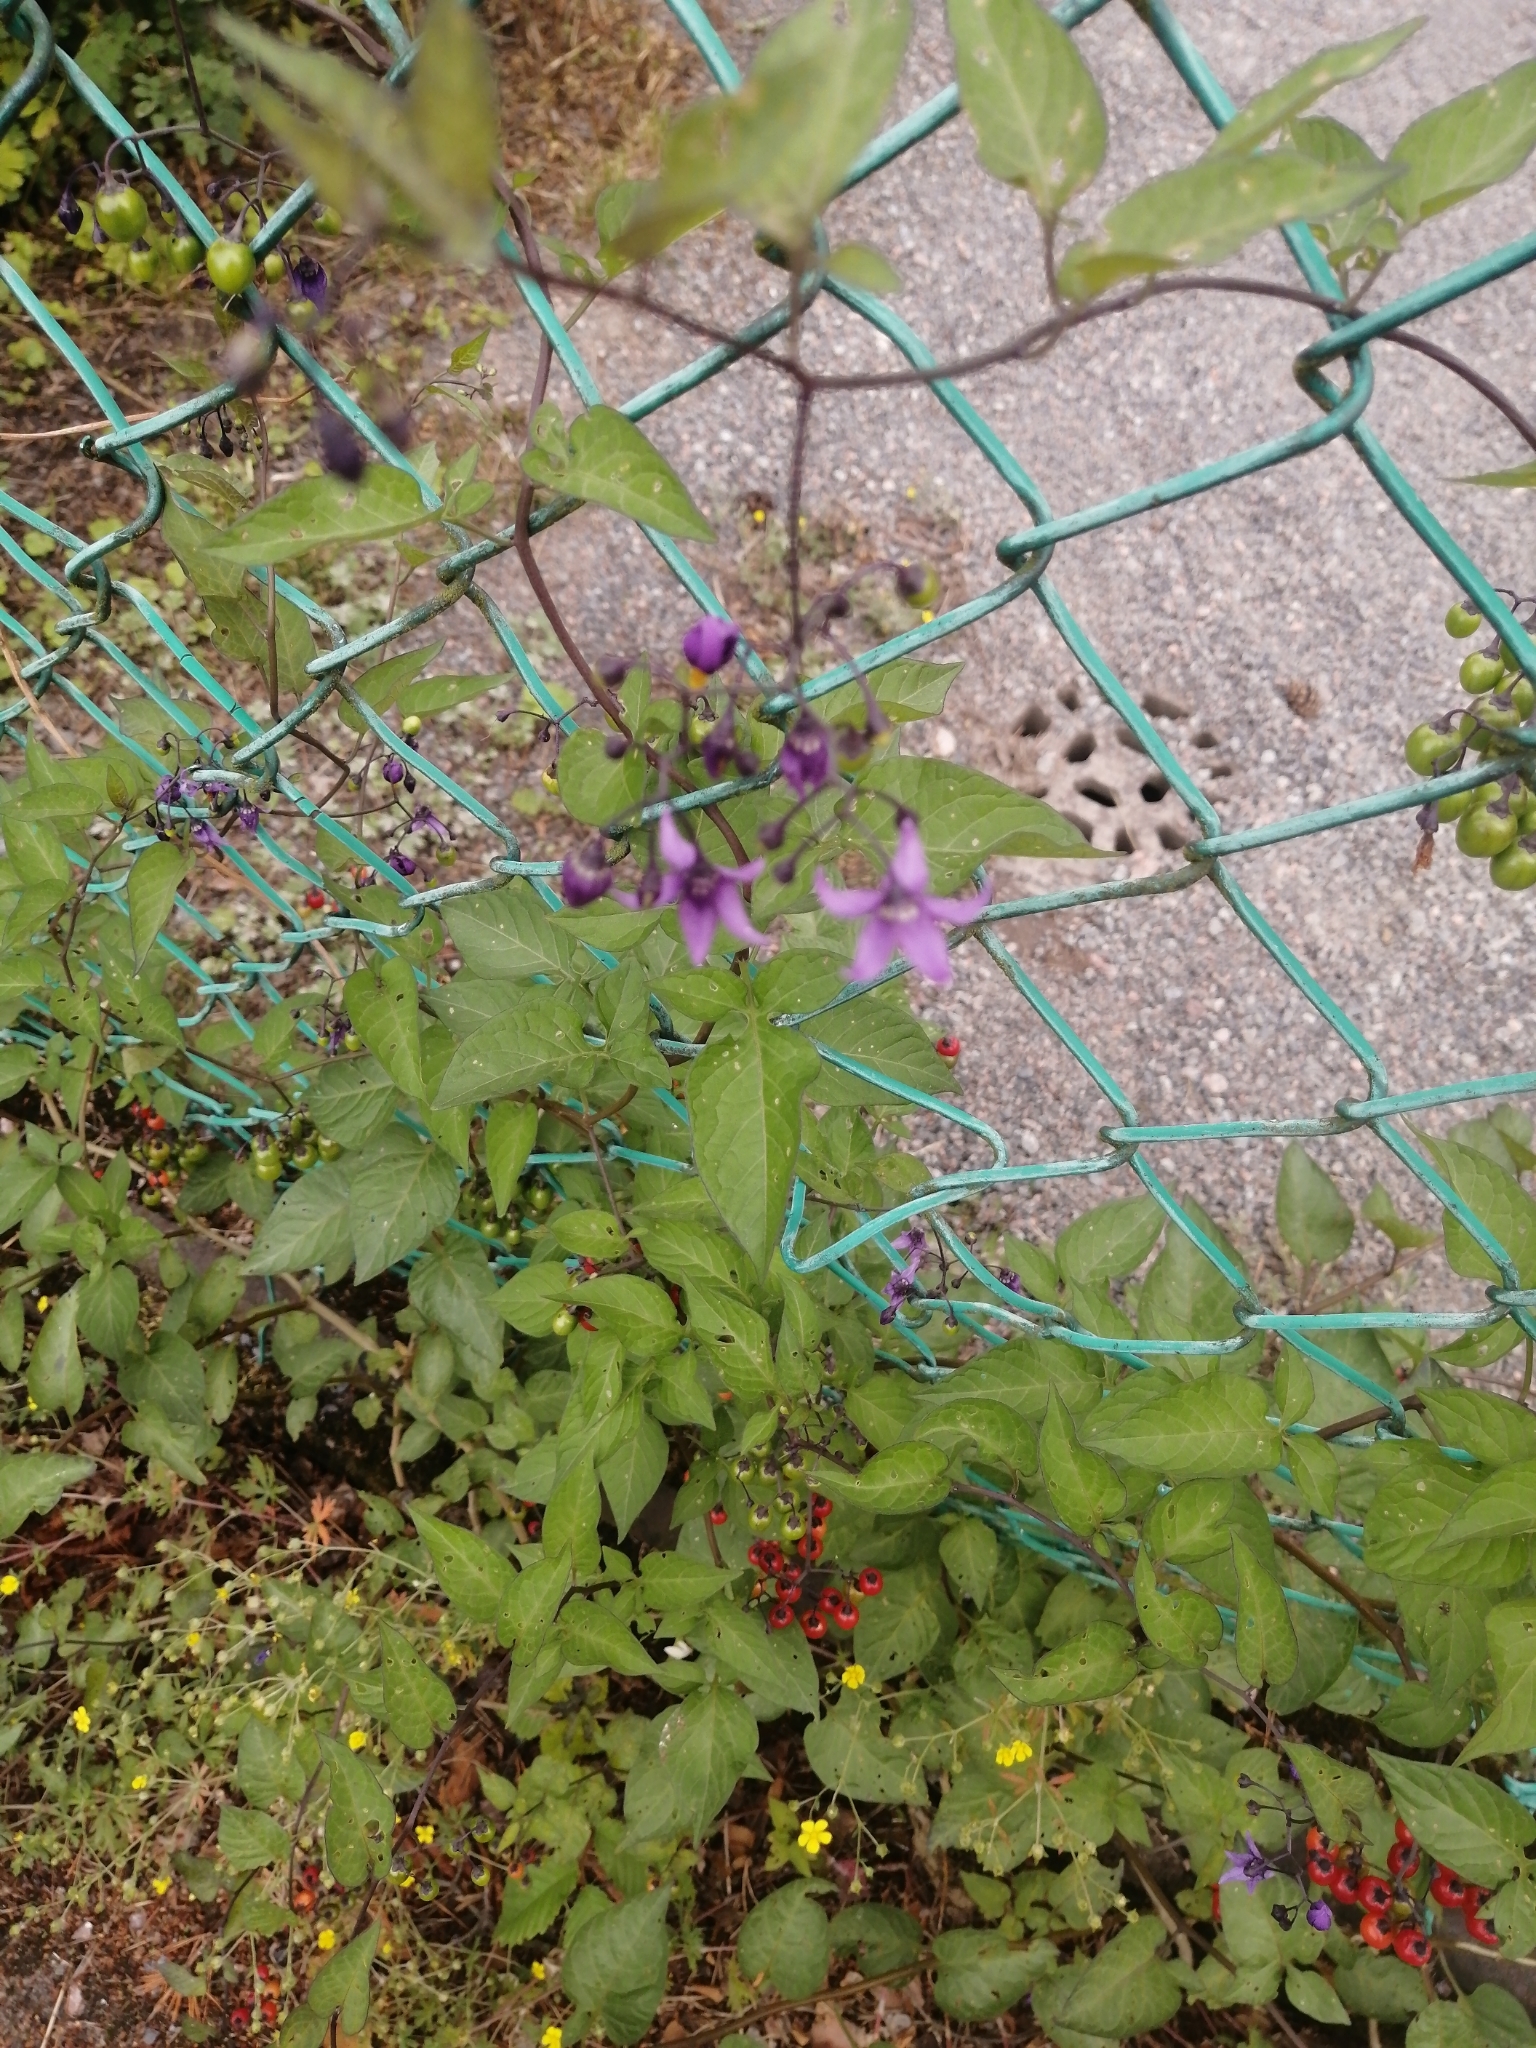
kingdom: Plantae
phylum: Tracheophyta
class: Magnoliopsida
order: Solanales
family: Solanaceae
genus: Solanum
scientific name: Solanum dulcamara
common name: Climbing nightshade
